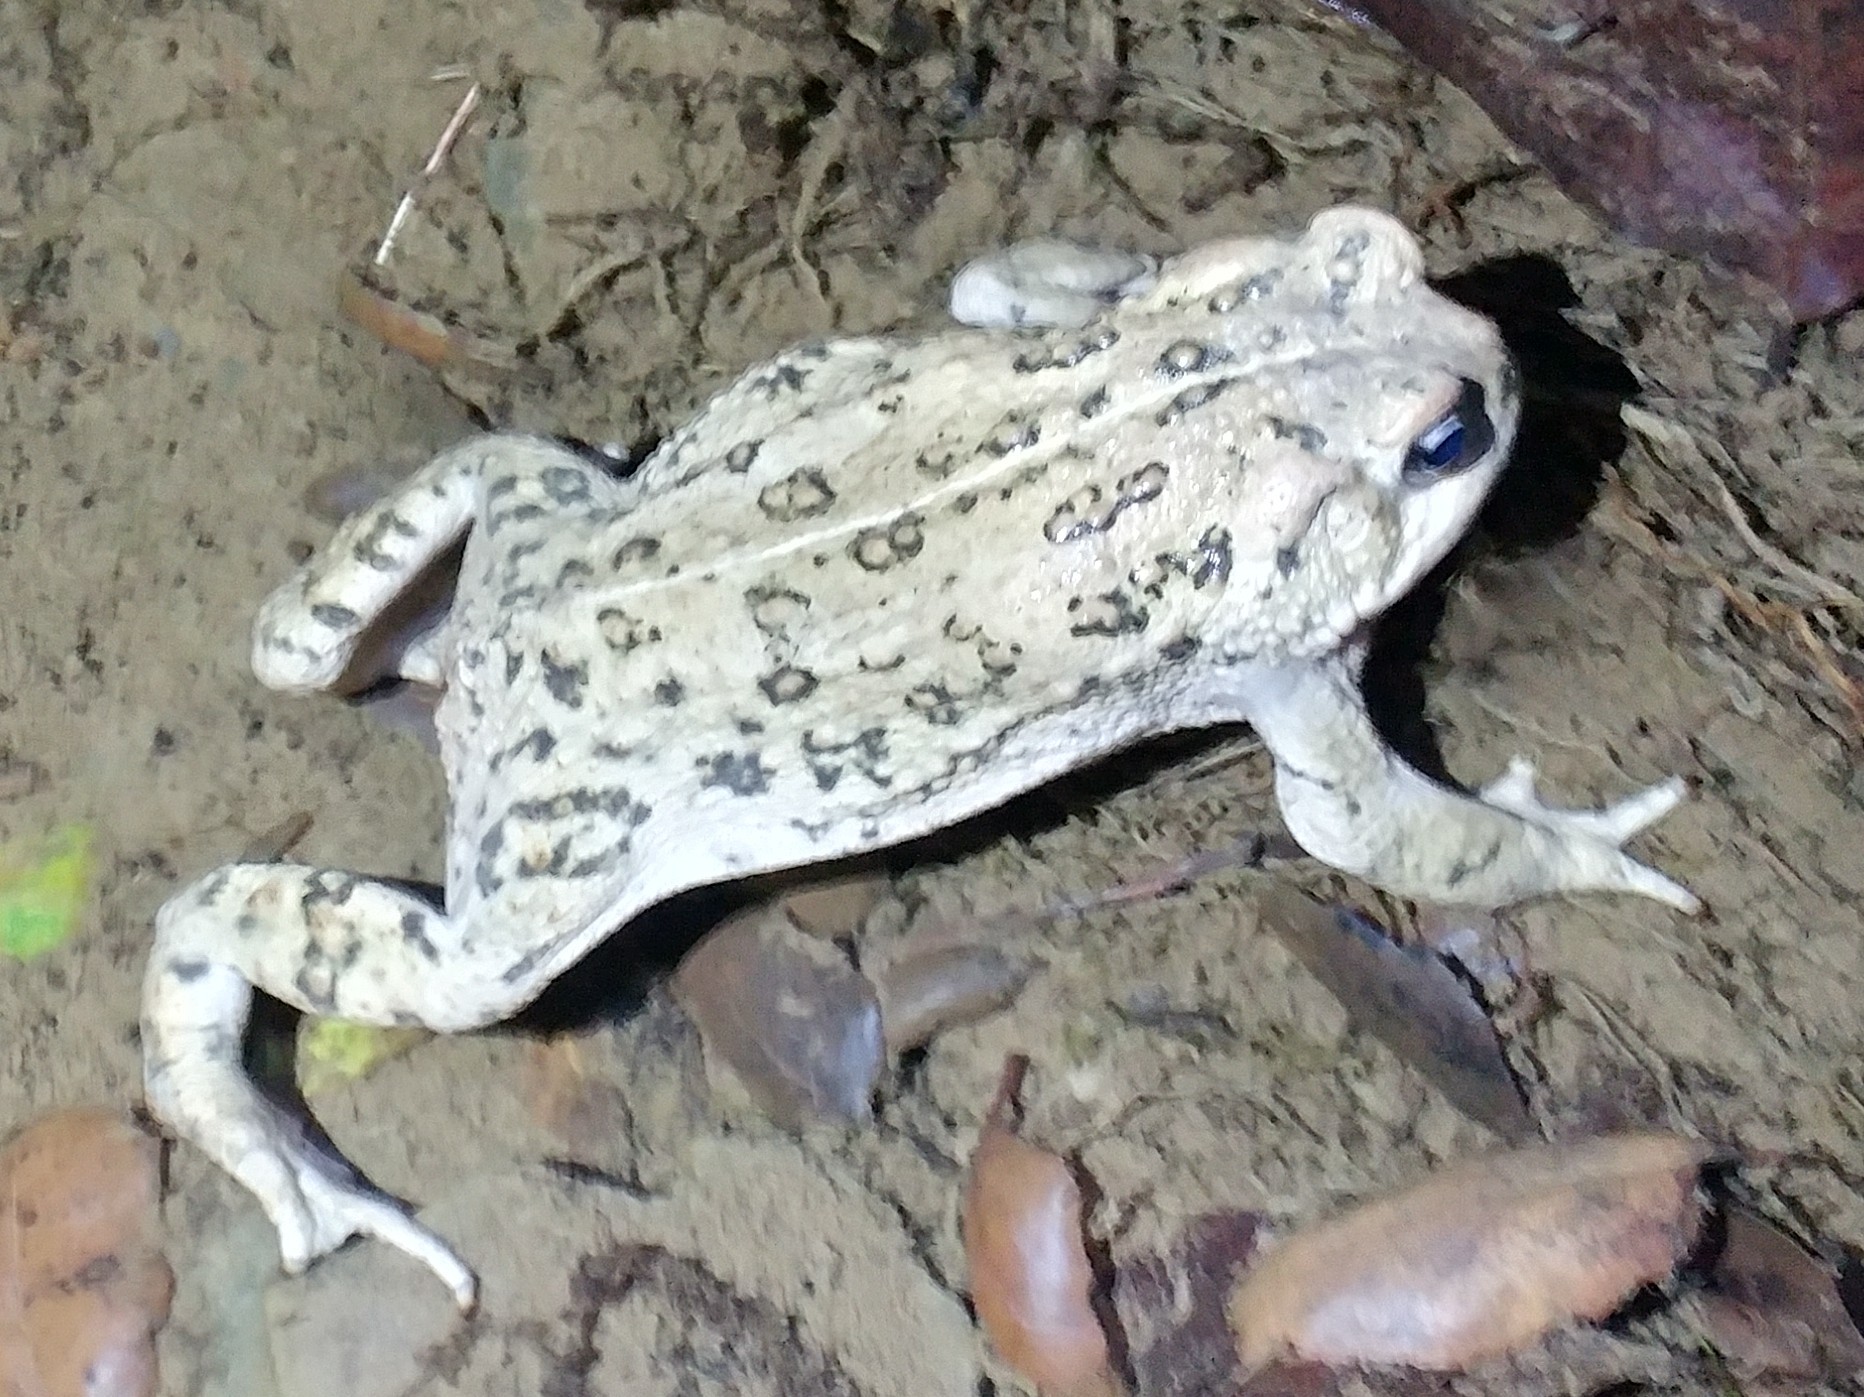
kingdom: Animalia
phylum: Chordata
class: Amphibia
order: Anura
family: Bufonidae
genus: Anaxyrus
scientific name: Anaxyrus boreas
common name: Western toad
